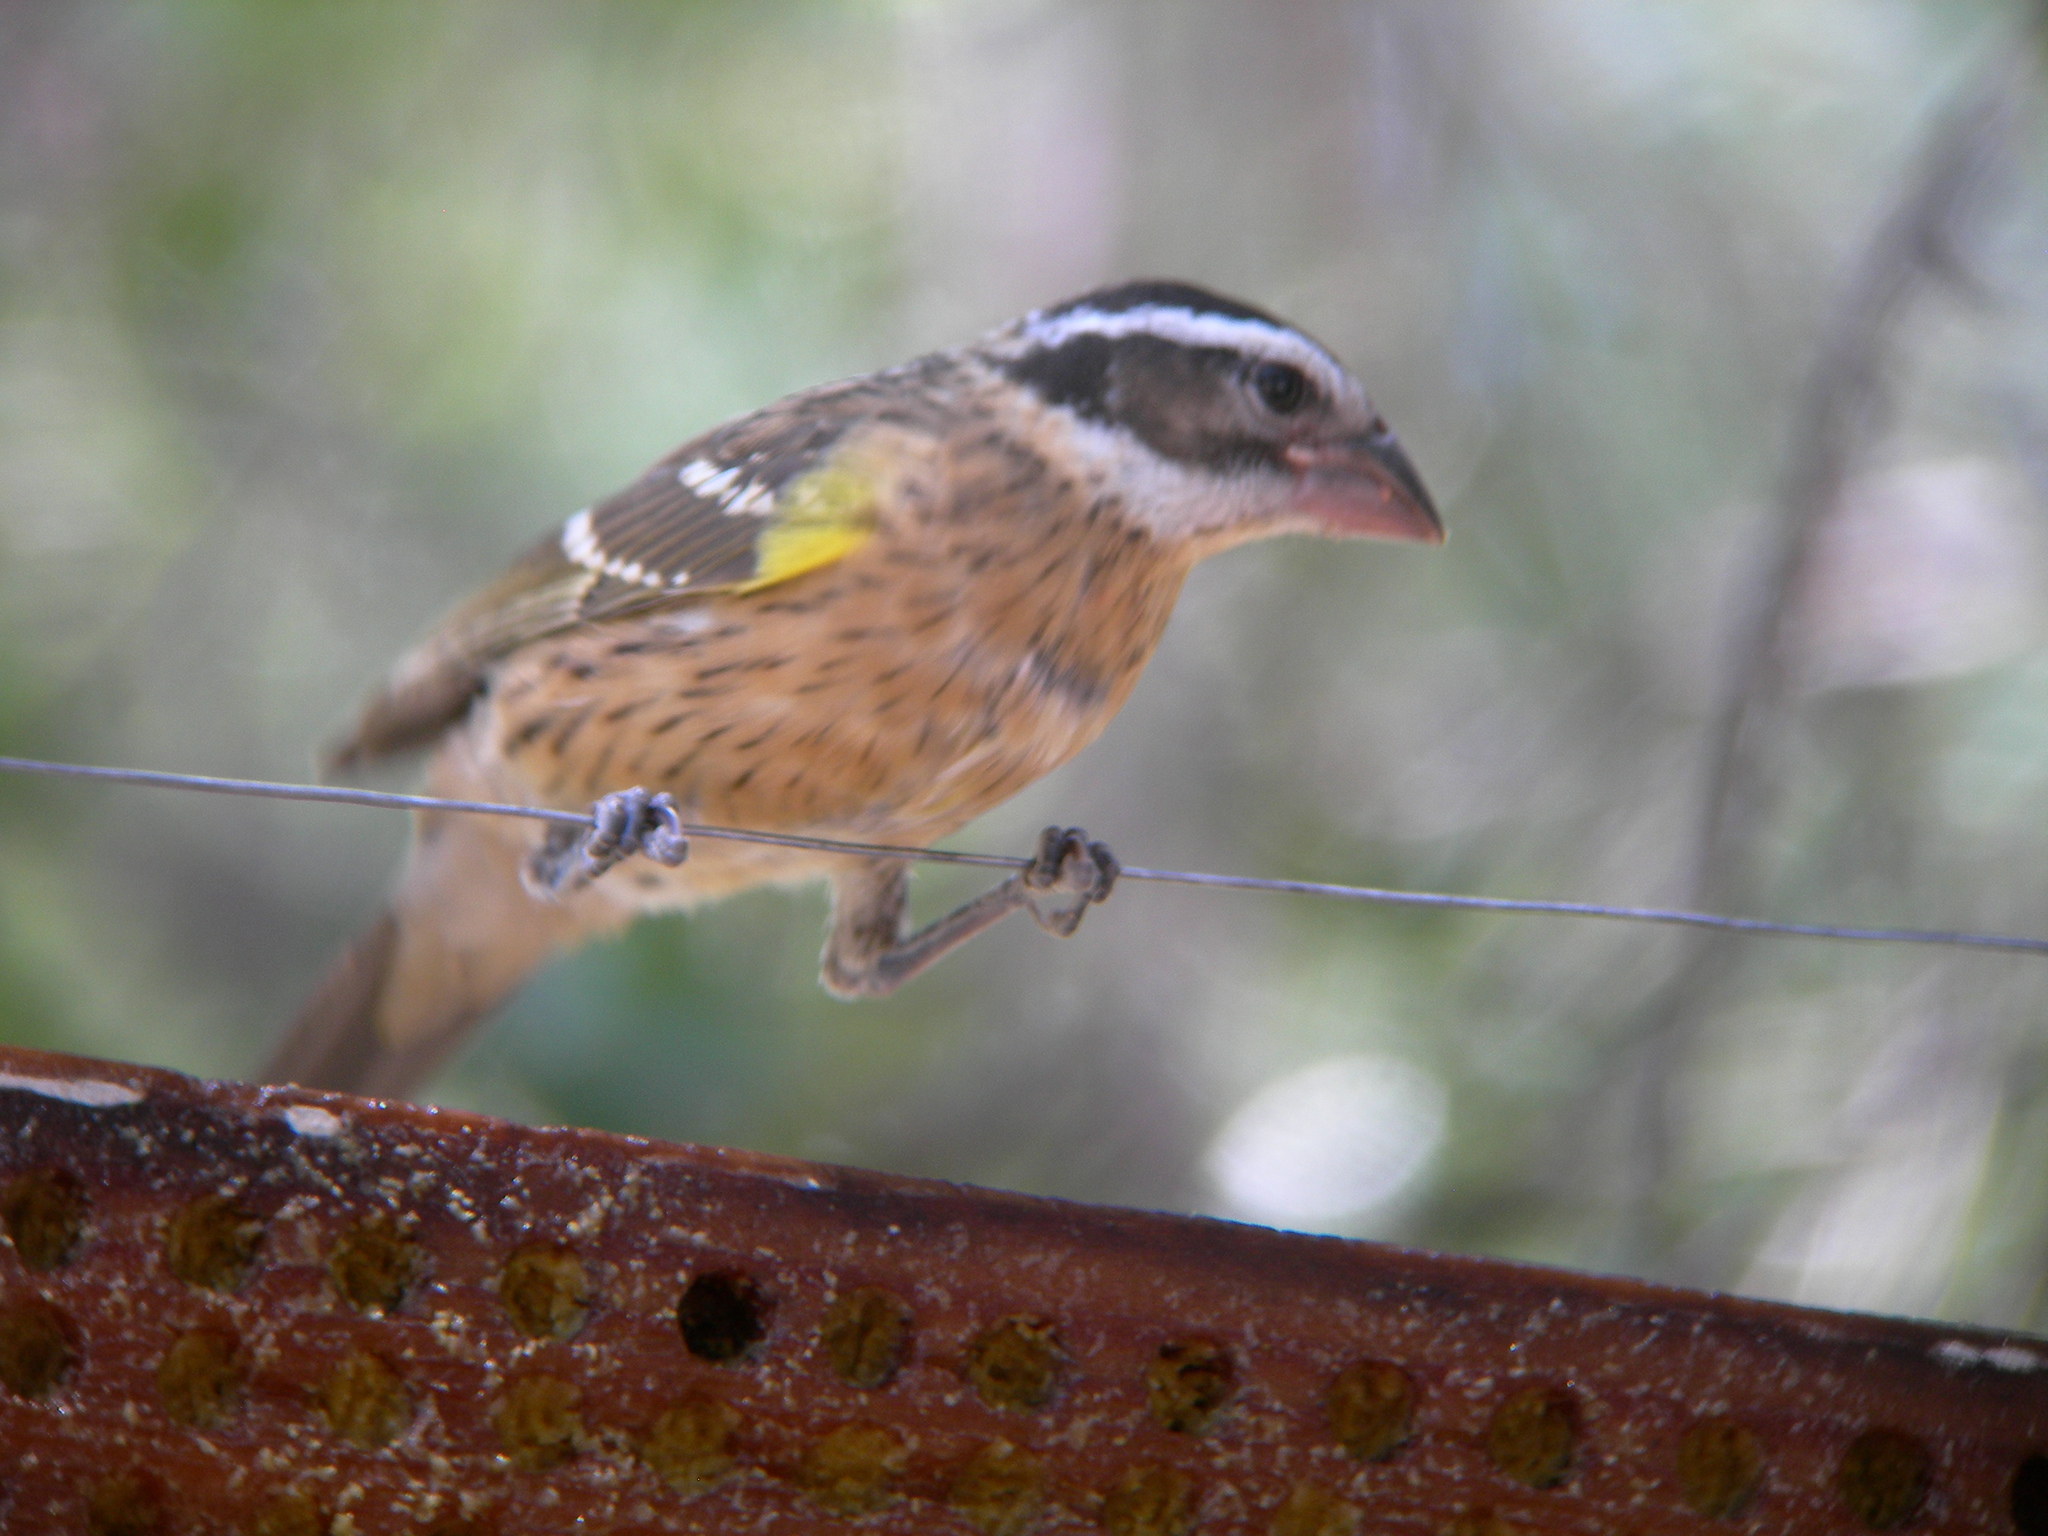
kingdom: Animalia
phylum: Chordata
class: Aves
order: Passeriformes
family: Cardinalidae
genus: Pheucticus
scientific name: Pheucticus melanocephalus
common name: Black-headed grosbeak
